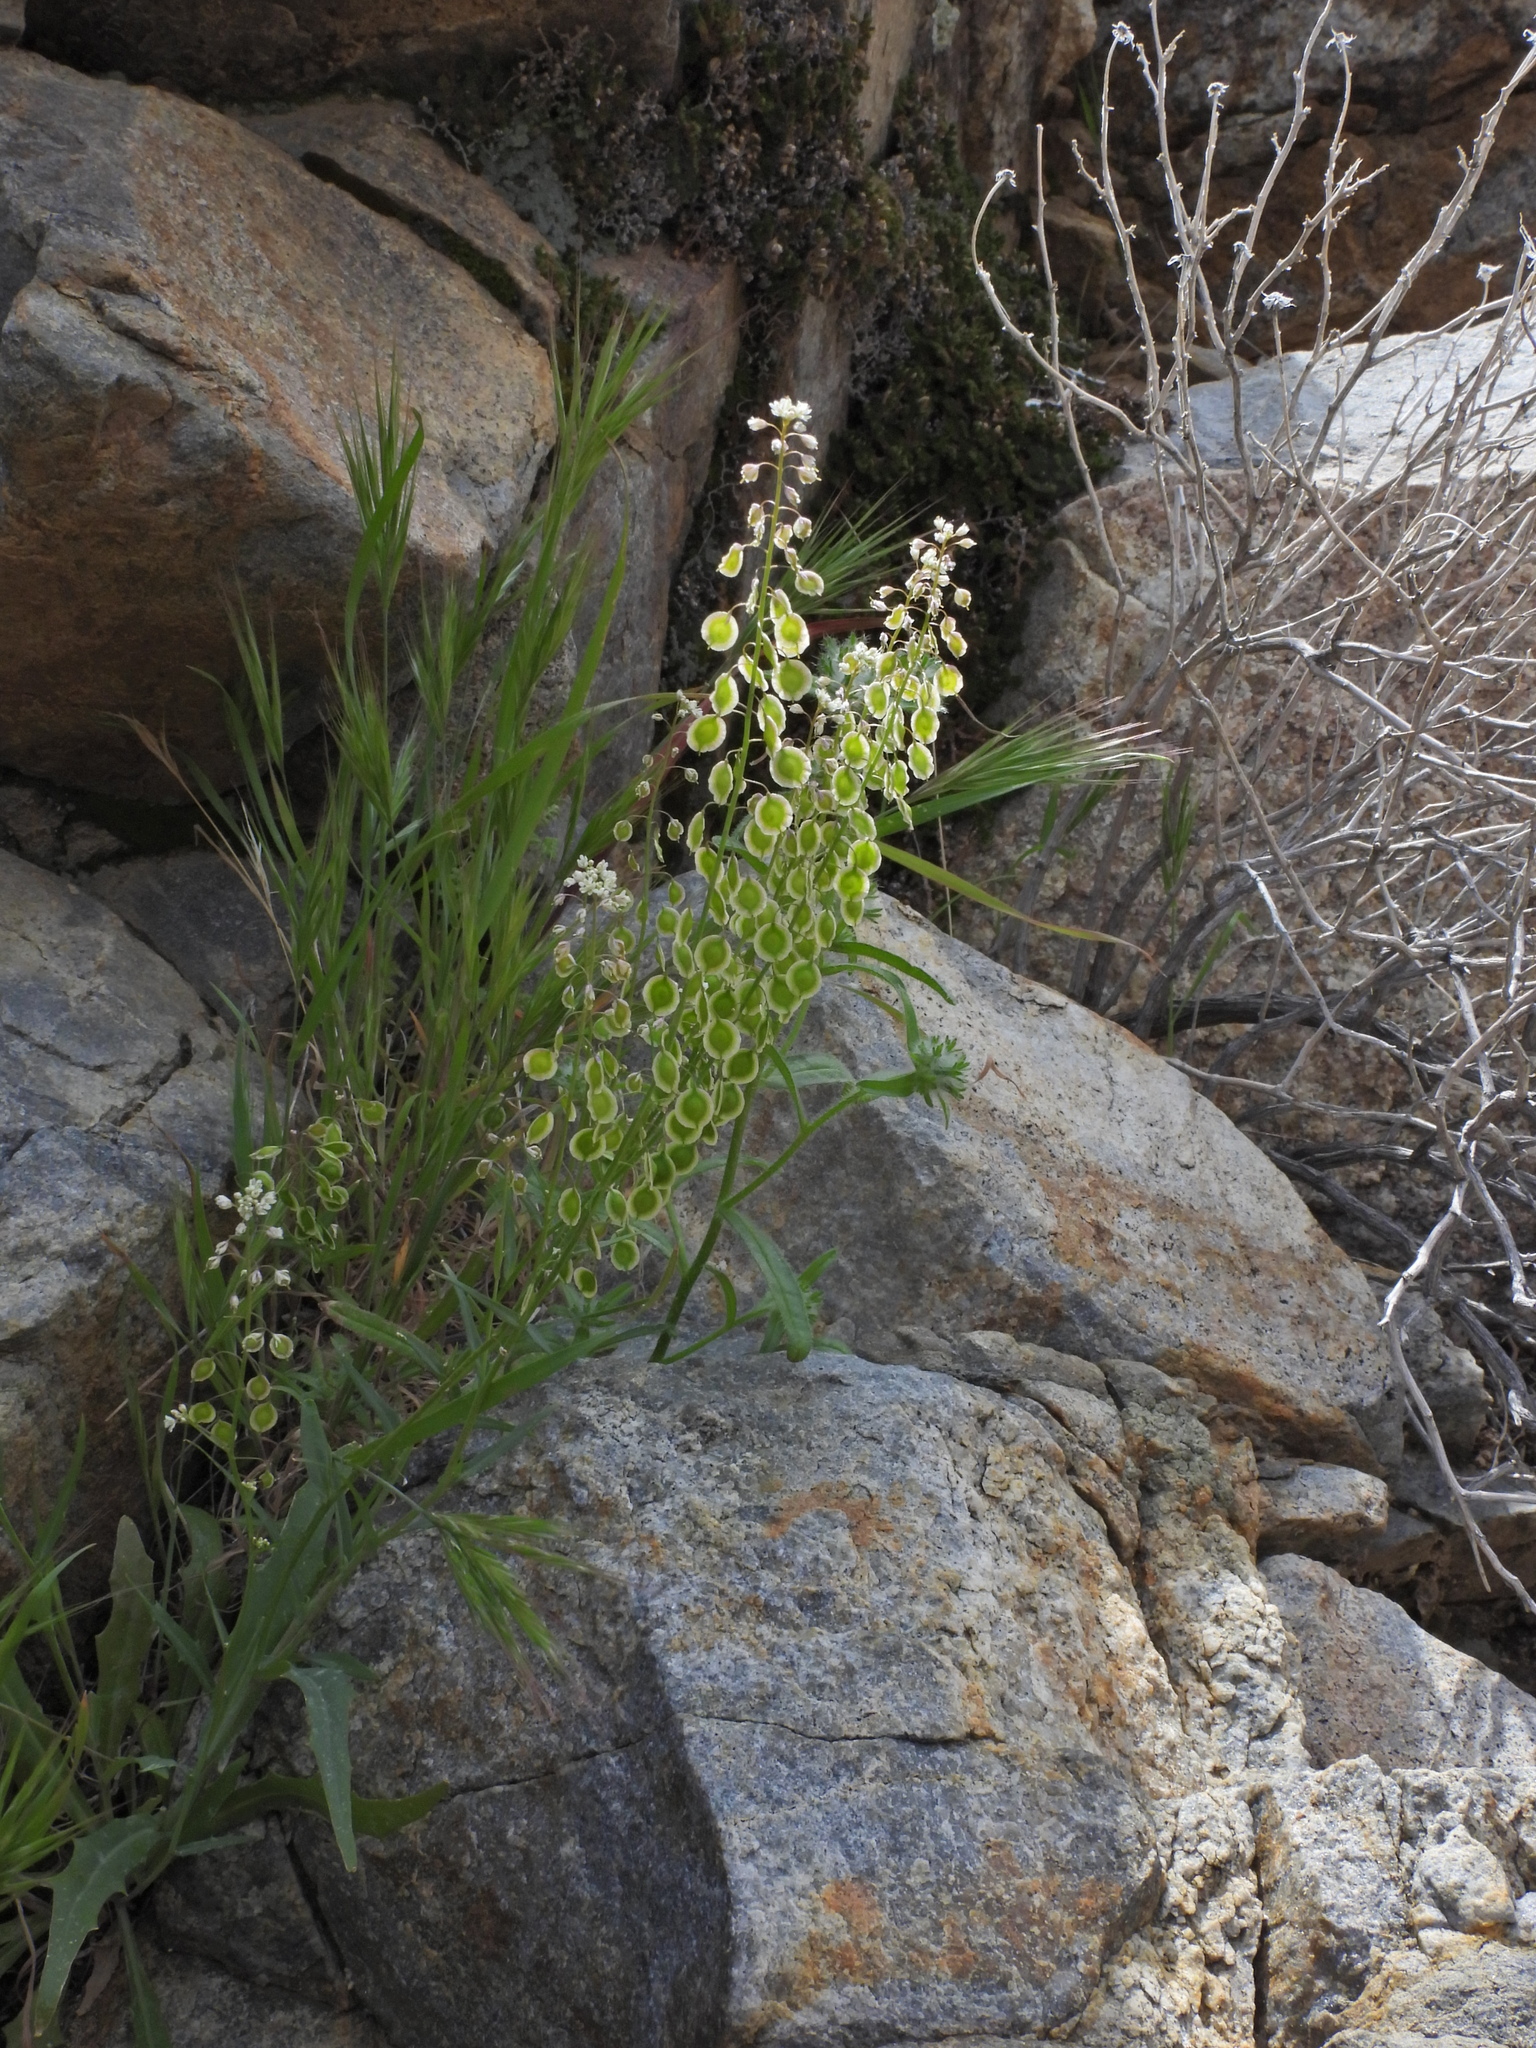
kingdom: Plantae
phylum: Tracheophyta
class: Magnoliopsida
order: Brassicales
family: Brassicaceae
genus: Thysanocarpus
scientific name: Thysanocarpus curvipes
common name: Sand fringepod
